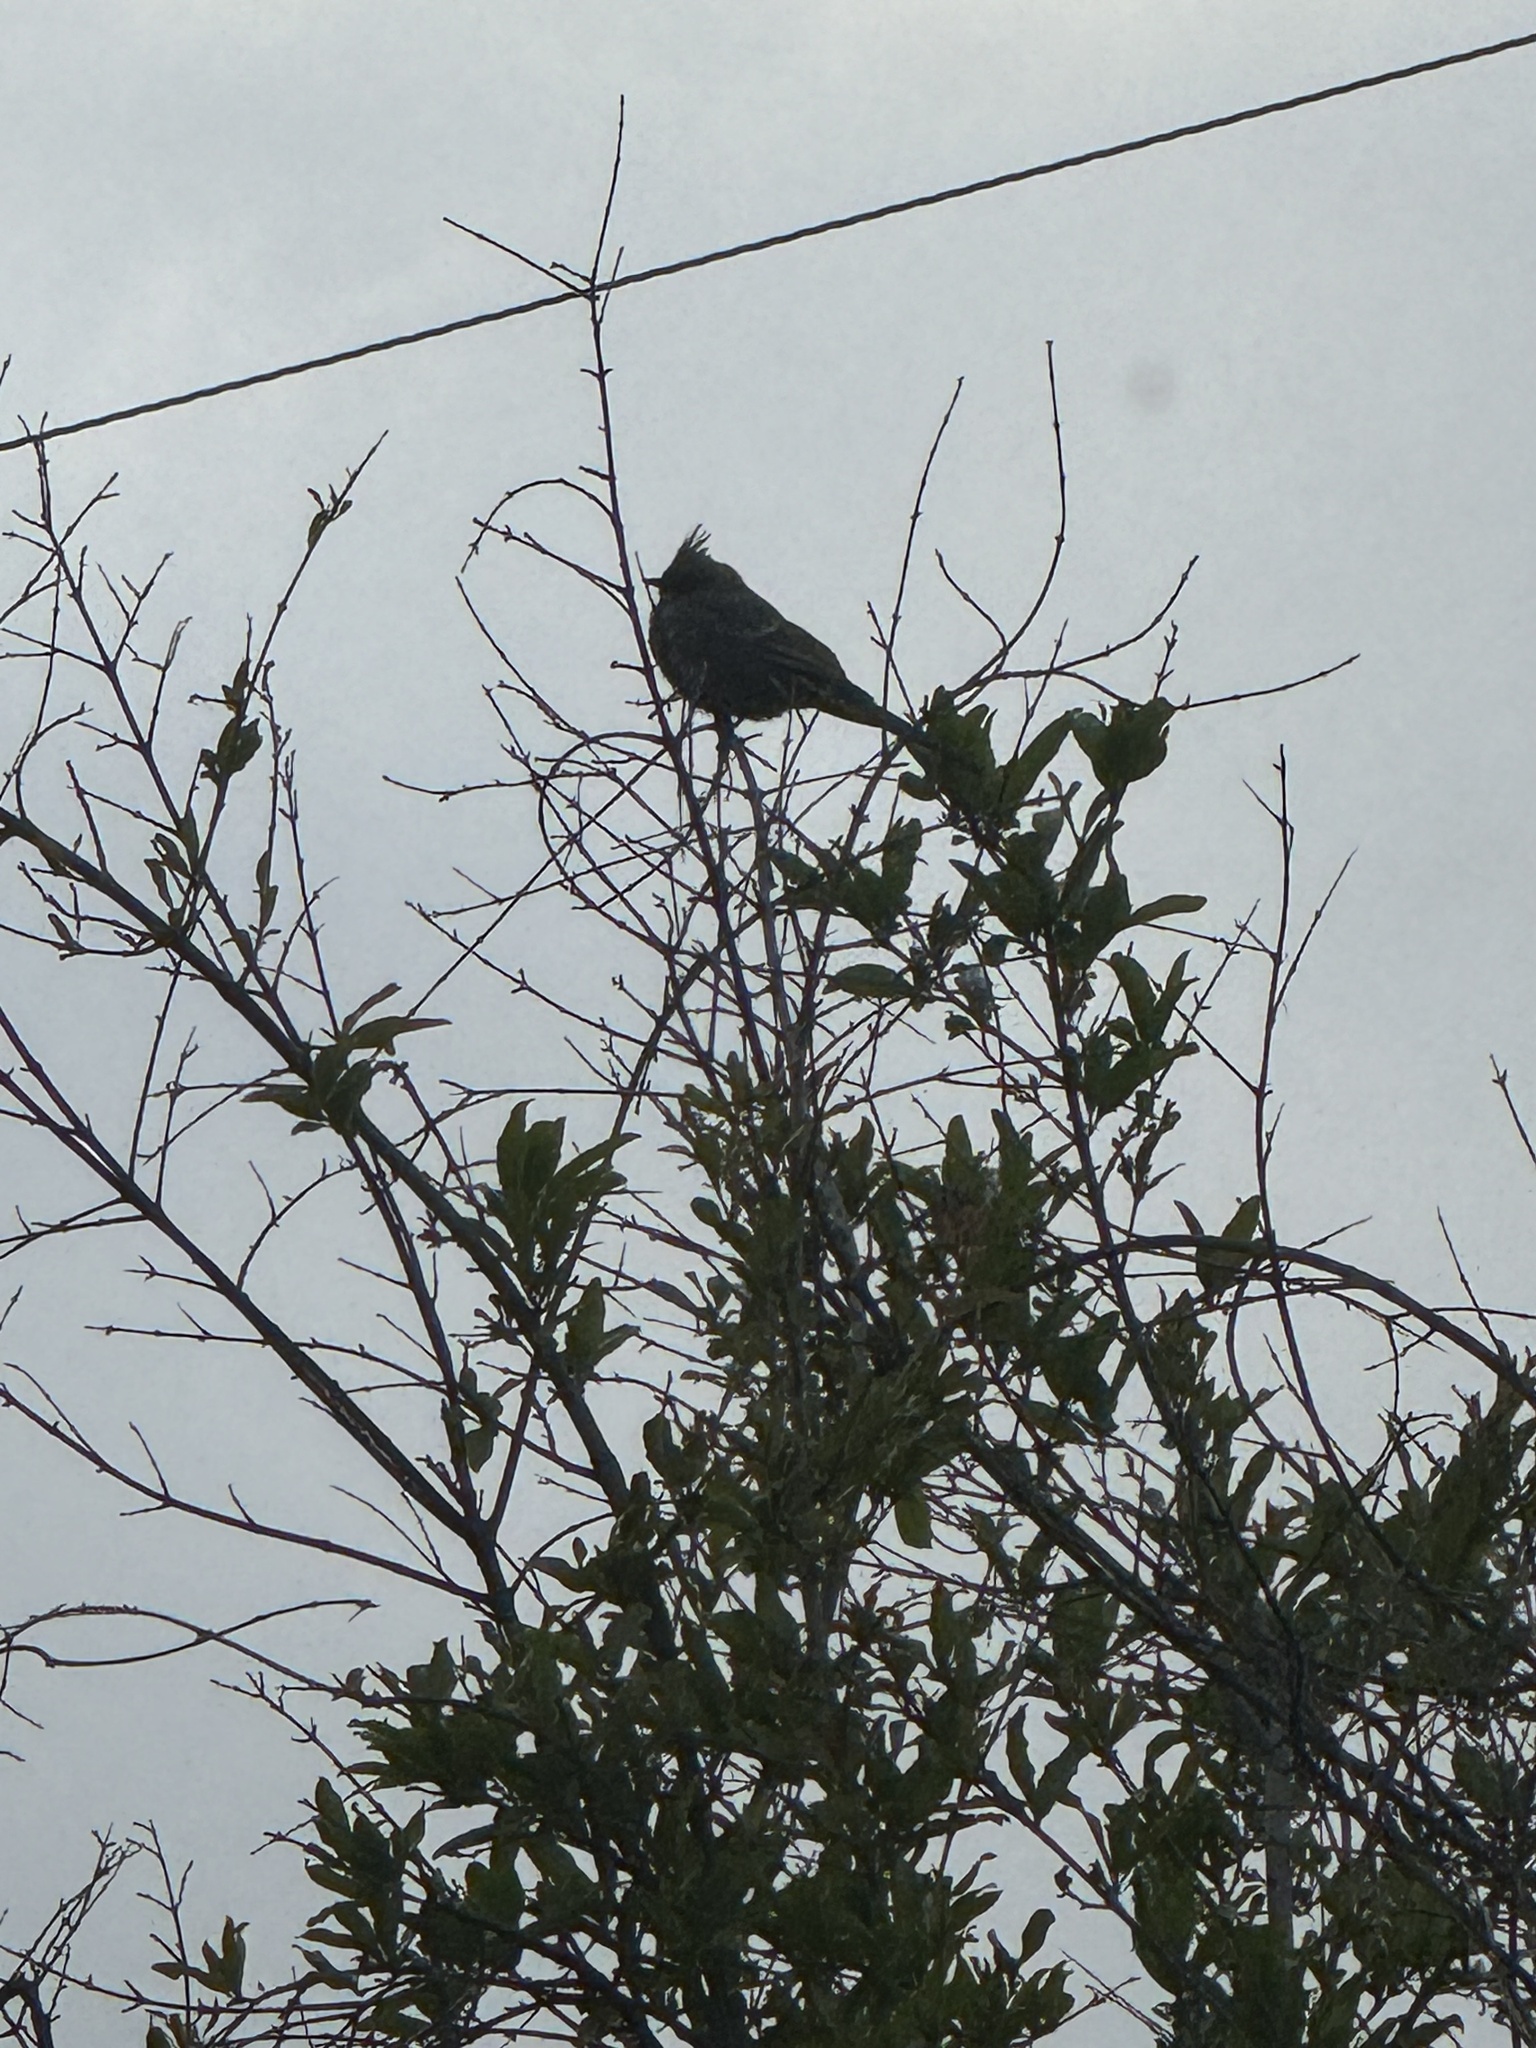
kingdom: Animalia
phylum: Chordata
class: Aves
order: Passeriformes
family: Ptilogonatidae
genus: Phainopepla
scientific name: Phainopepla nitens
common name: Phainopepla
